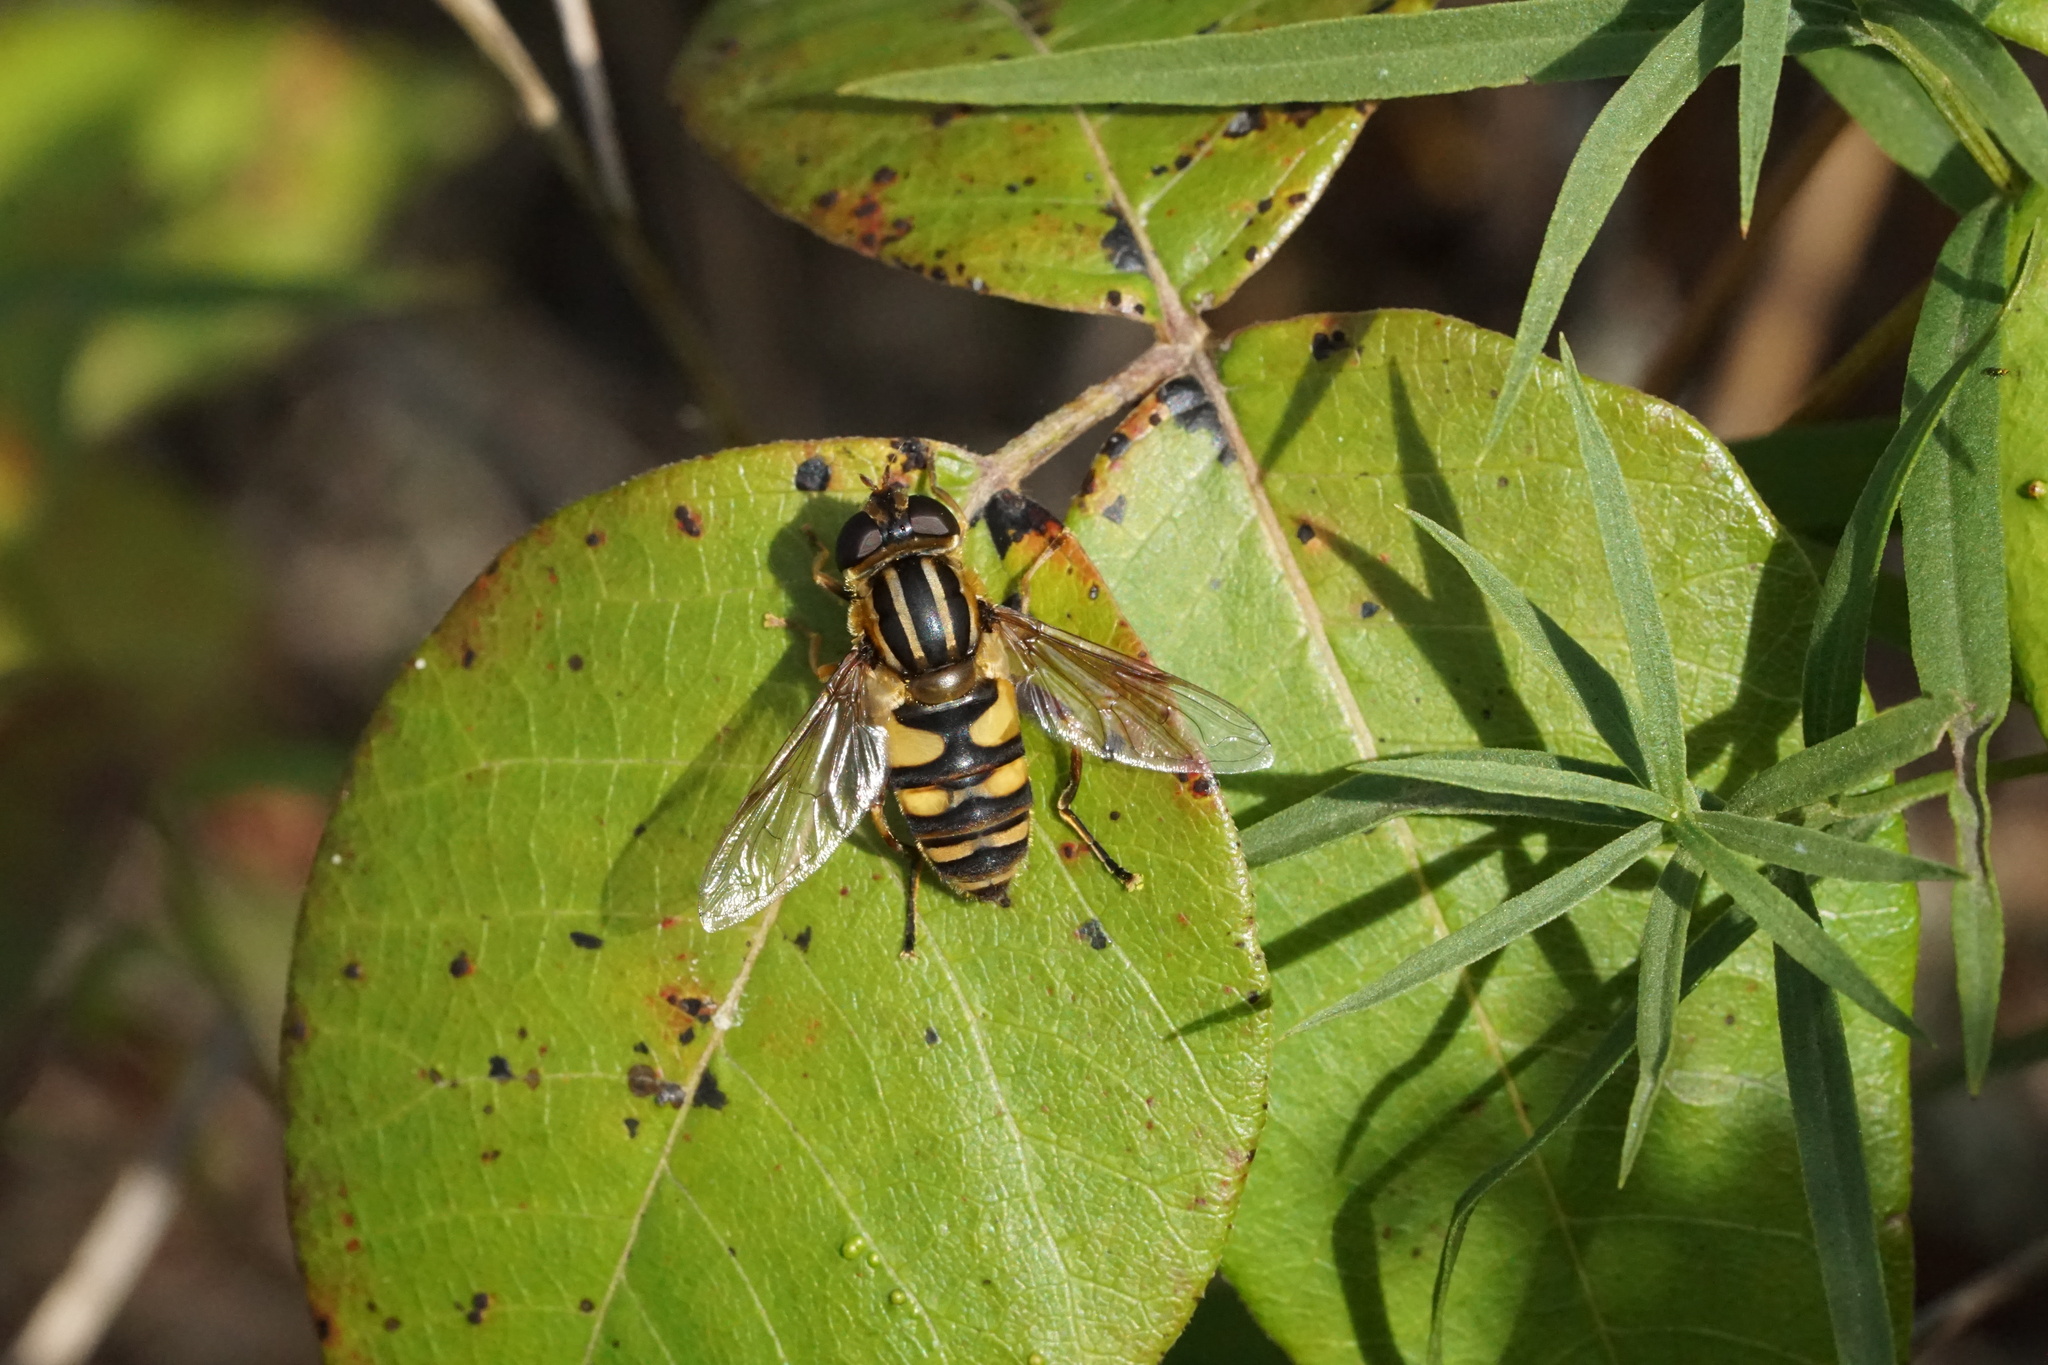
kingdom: Animalia
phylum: Arthropoda
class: Insecta
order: Diptera
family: Syrphidae
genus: Helophilus
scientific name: Helophilus fasciatus
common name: Narrow-headed marsh fly
